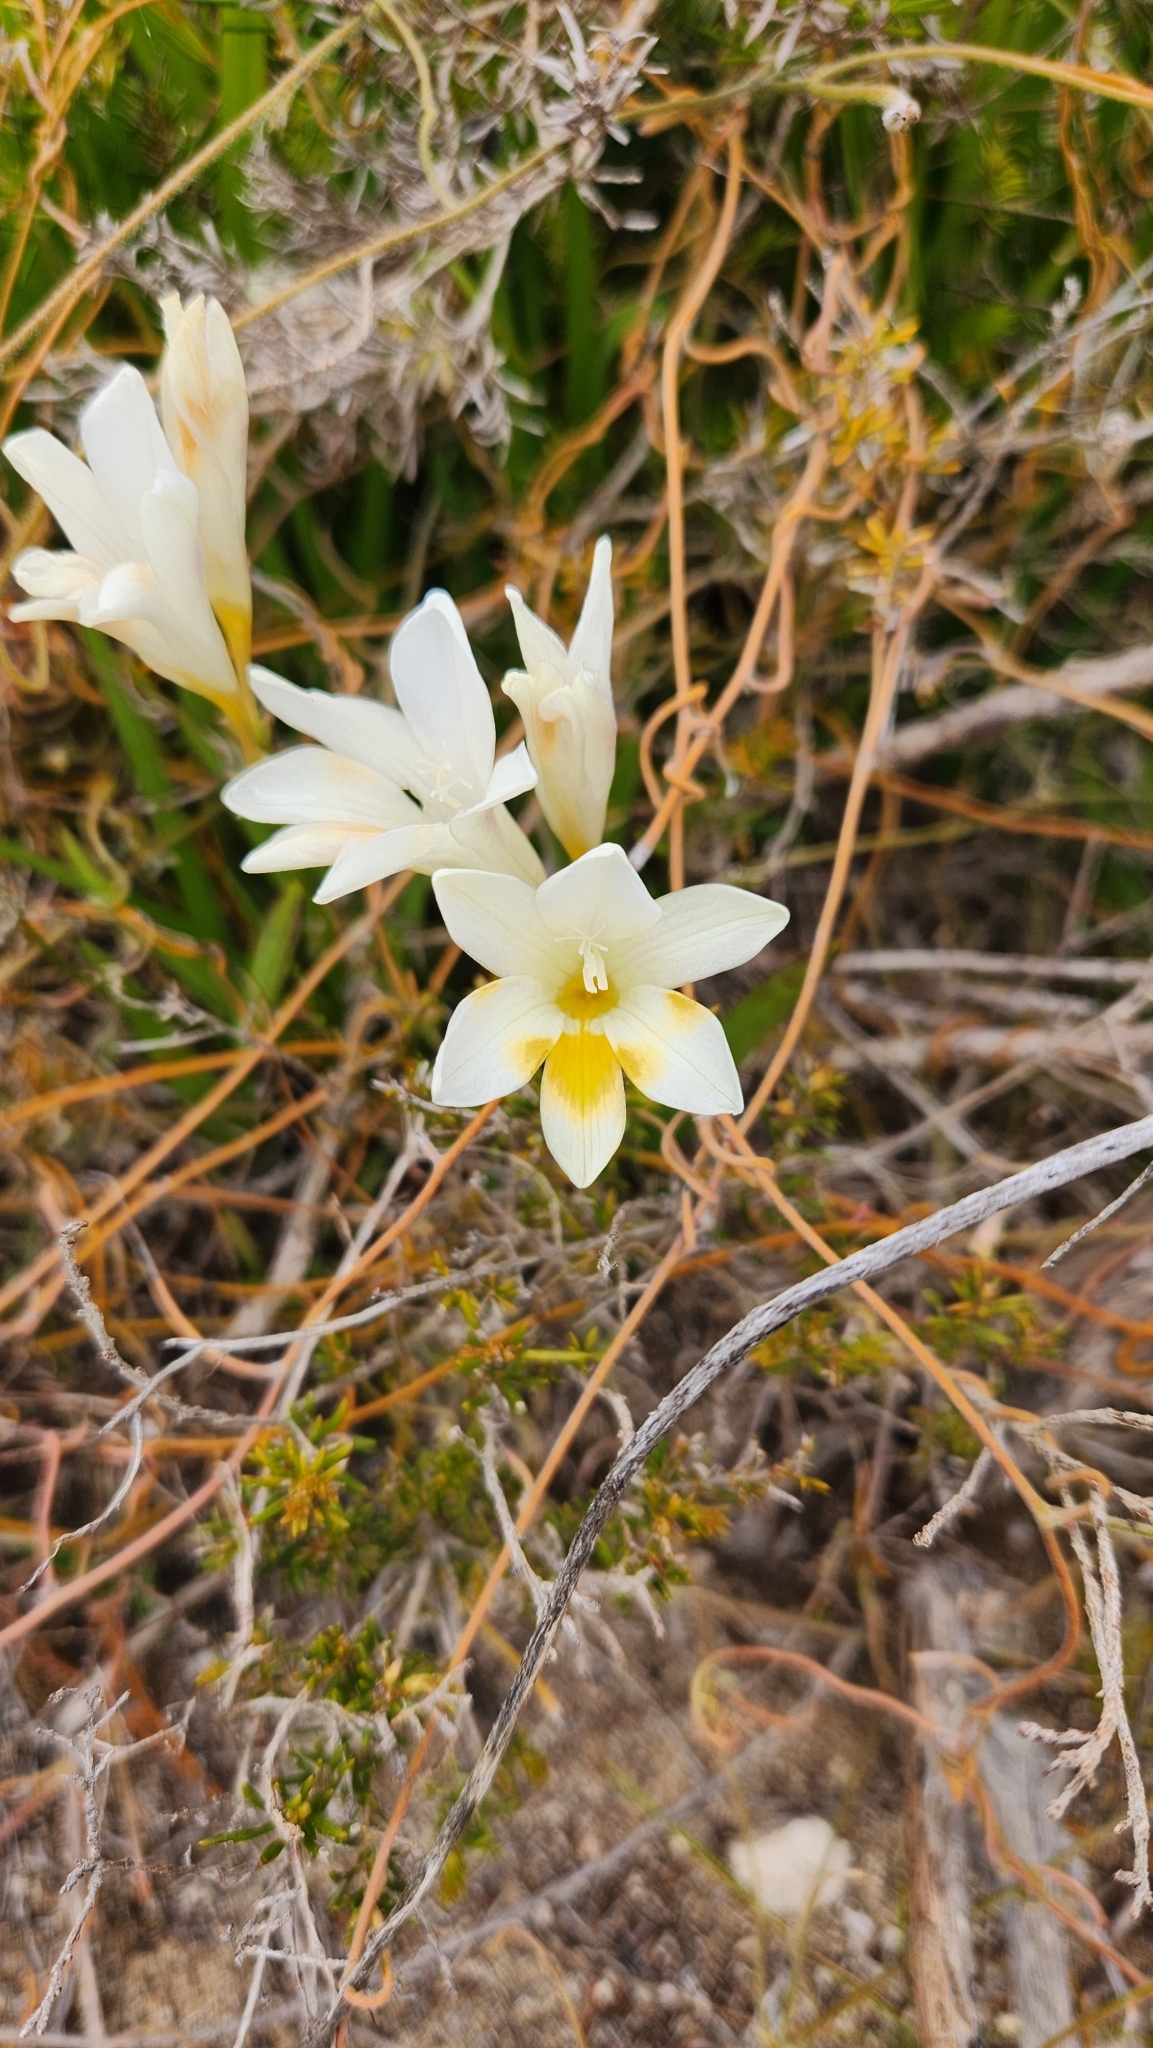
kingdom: Plantae
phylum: Tracheophyta
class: Liliopsida
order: Asparagales
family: Iridaceae
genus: Freesia
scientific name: Freesia leichtlinii
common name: Freesia
